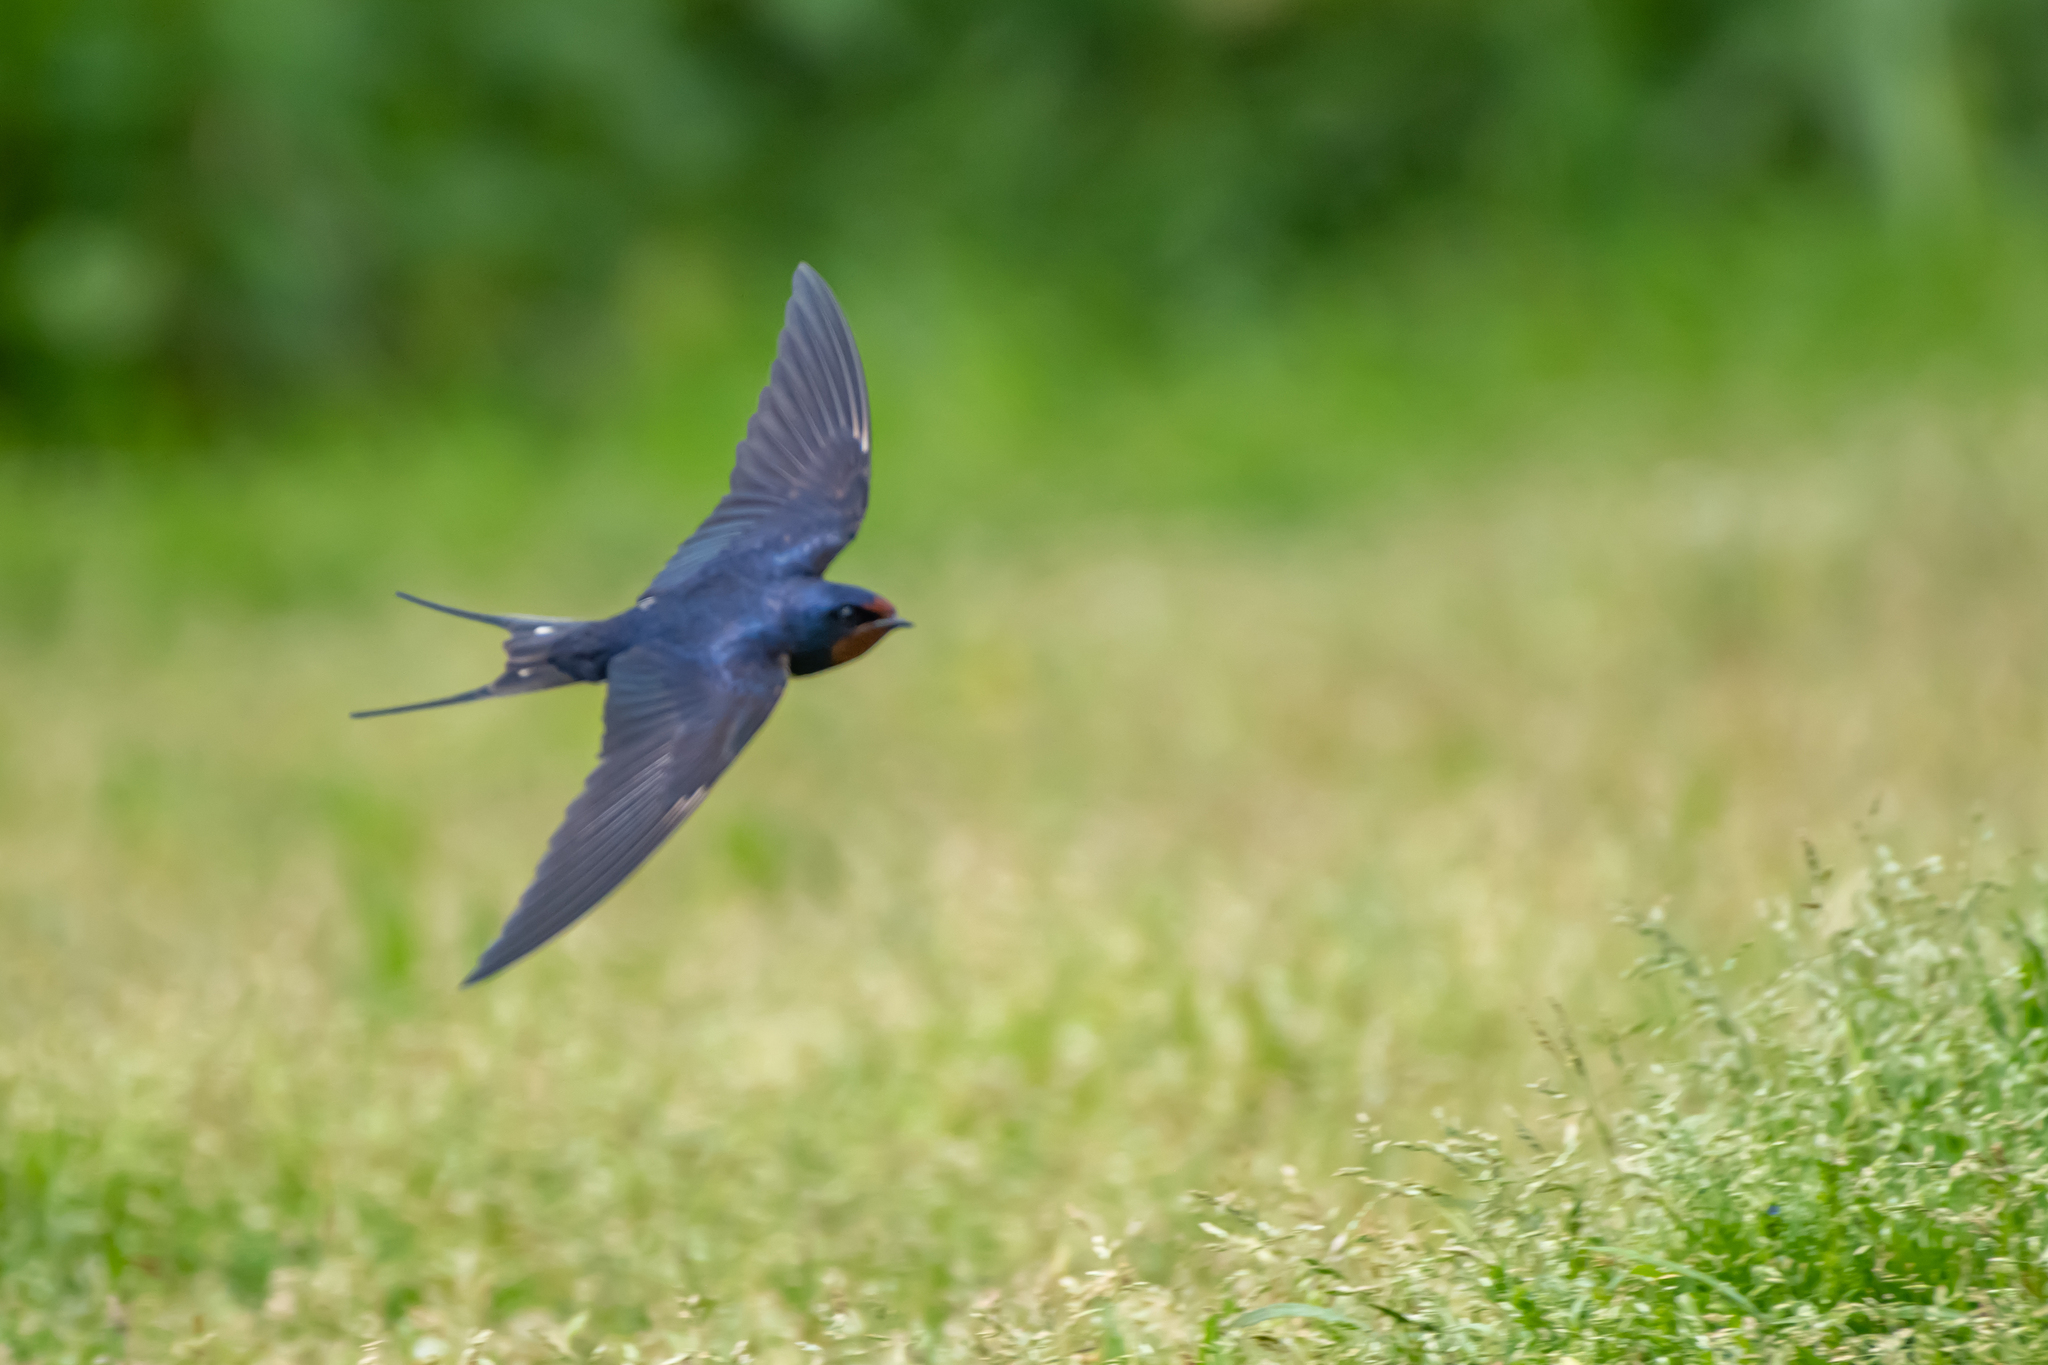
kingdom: Animalia
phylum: Chordata
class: Aves
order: Passeriformes
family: Hirundinidae
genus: Hirundo
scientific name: Hirundo rustica
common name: Barn swallow
